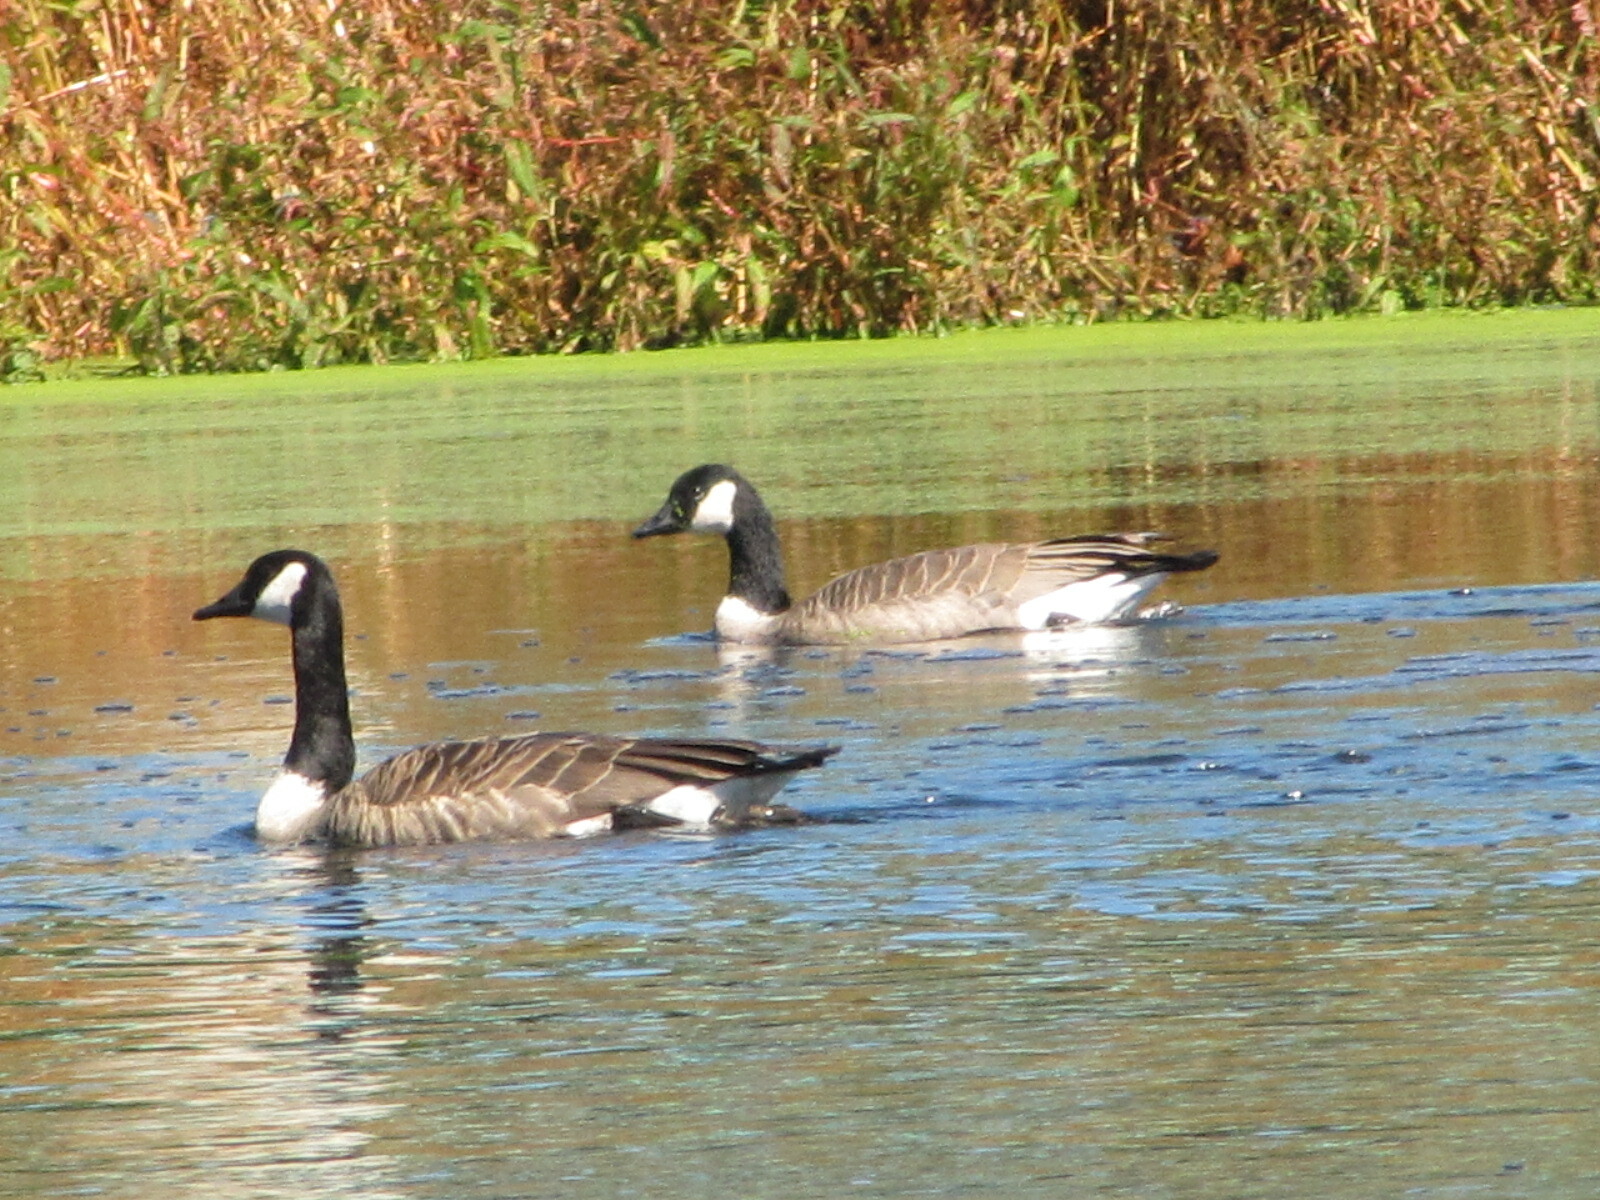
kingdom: Animalia
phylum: Chordata
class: Aves
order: Anseriformes
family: Anatidae
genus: Branta
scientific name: Branta canadensis
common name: Canada goose
